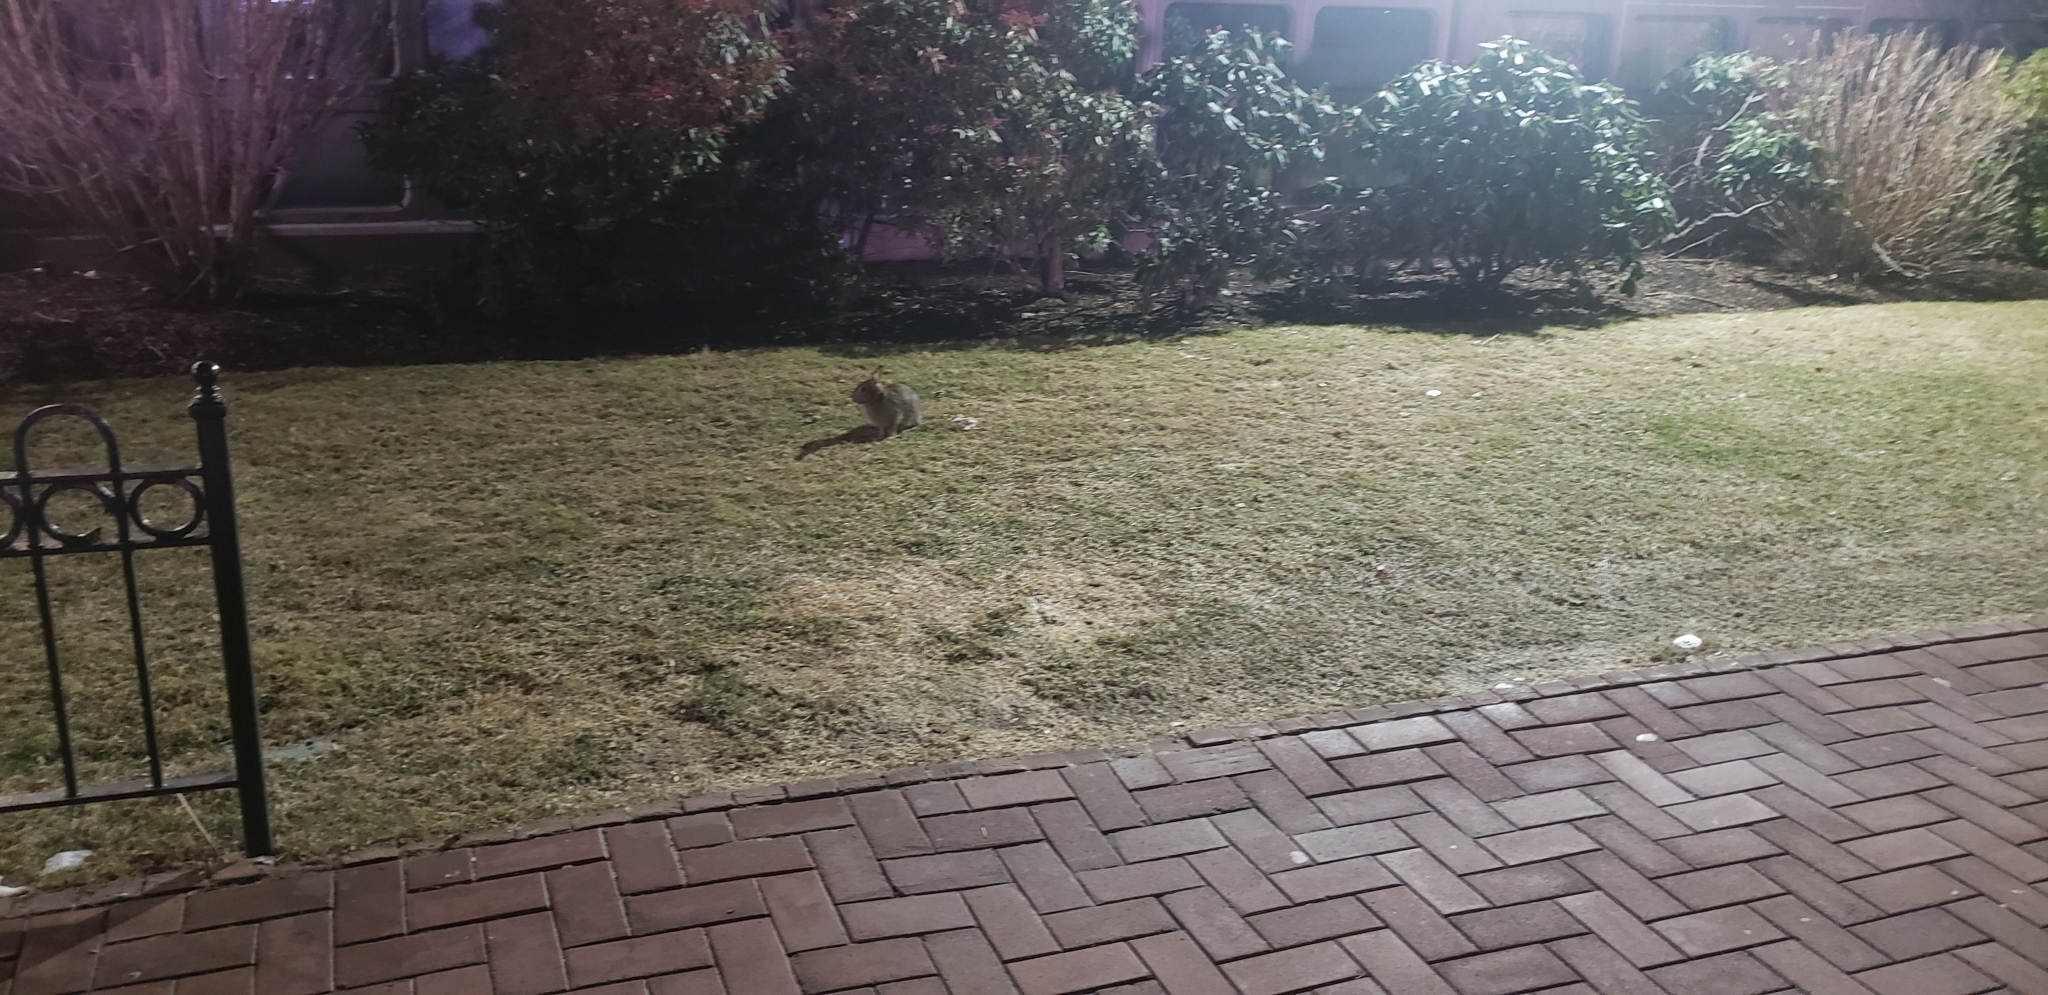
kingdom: Animalia
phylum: Chordata
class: Mammalia
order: Lagomorpha
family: Leporidae
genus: Sylvilagus
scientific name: Sylvilagus floridanus
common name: Eastern cottontail
